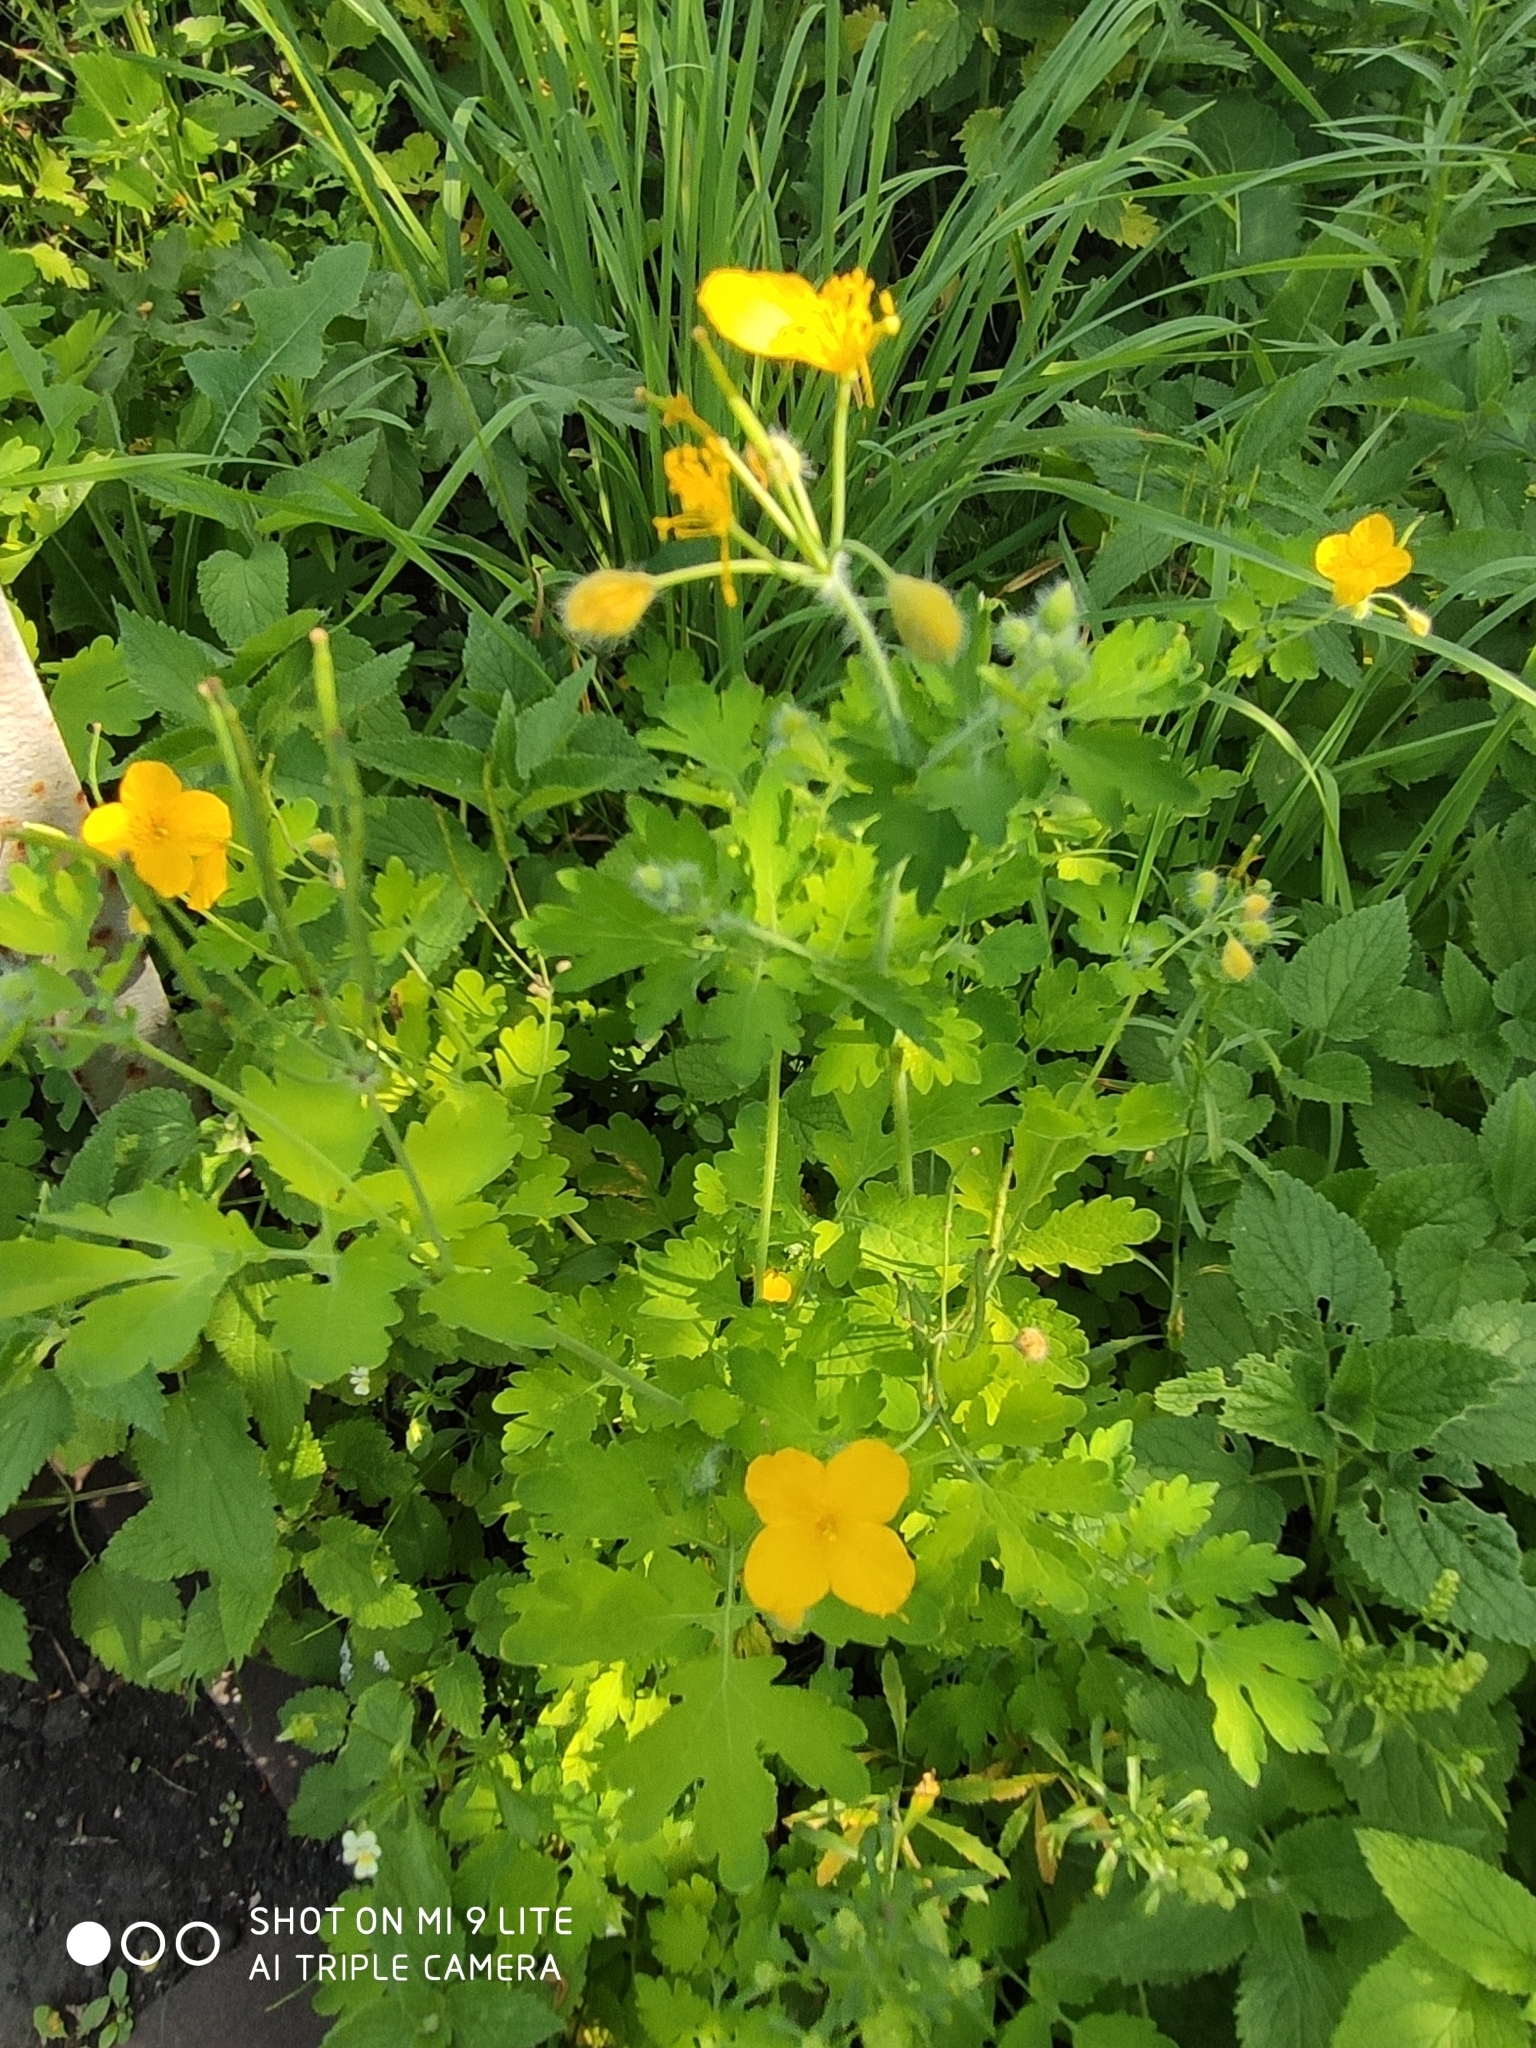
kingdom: Plantae
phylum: Tracheophyta
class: Magnoliopsida
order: Ranunculales
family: Papaveraceae
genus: Chelidonium
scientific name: Chelidonium majus
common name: Greater celandine
